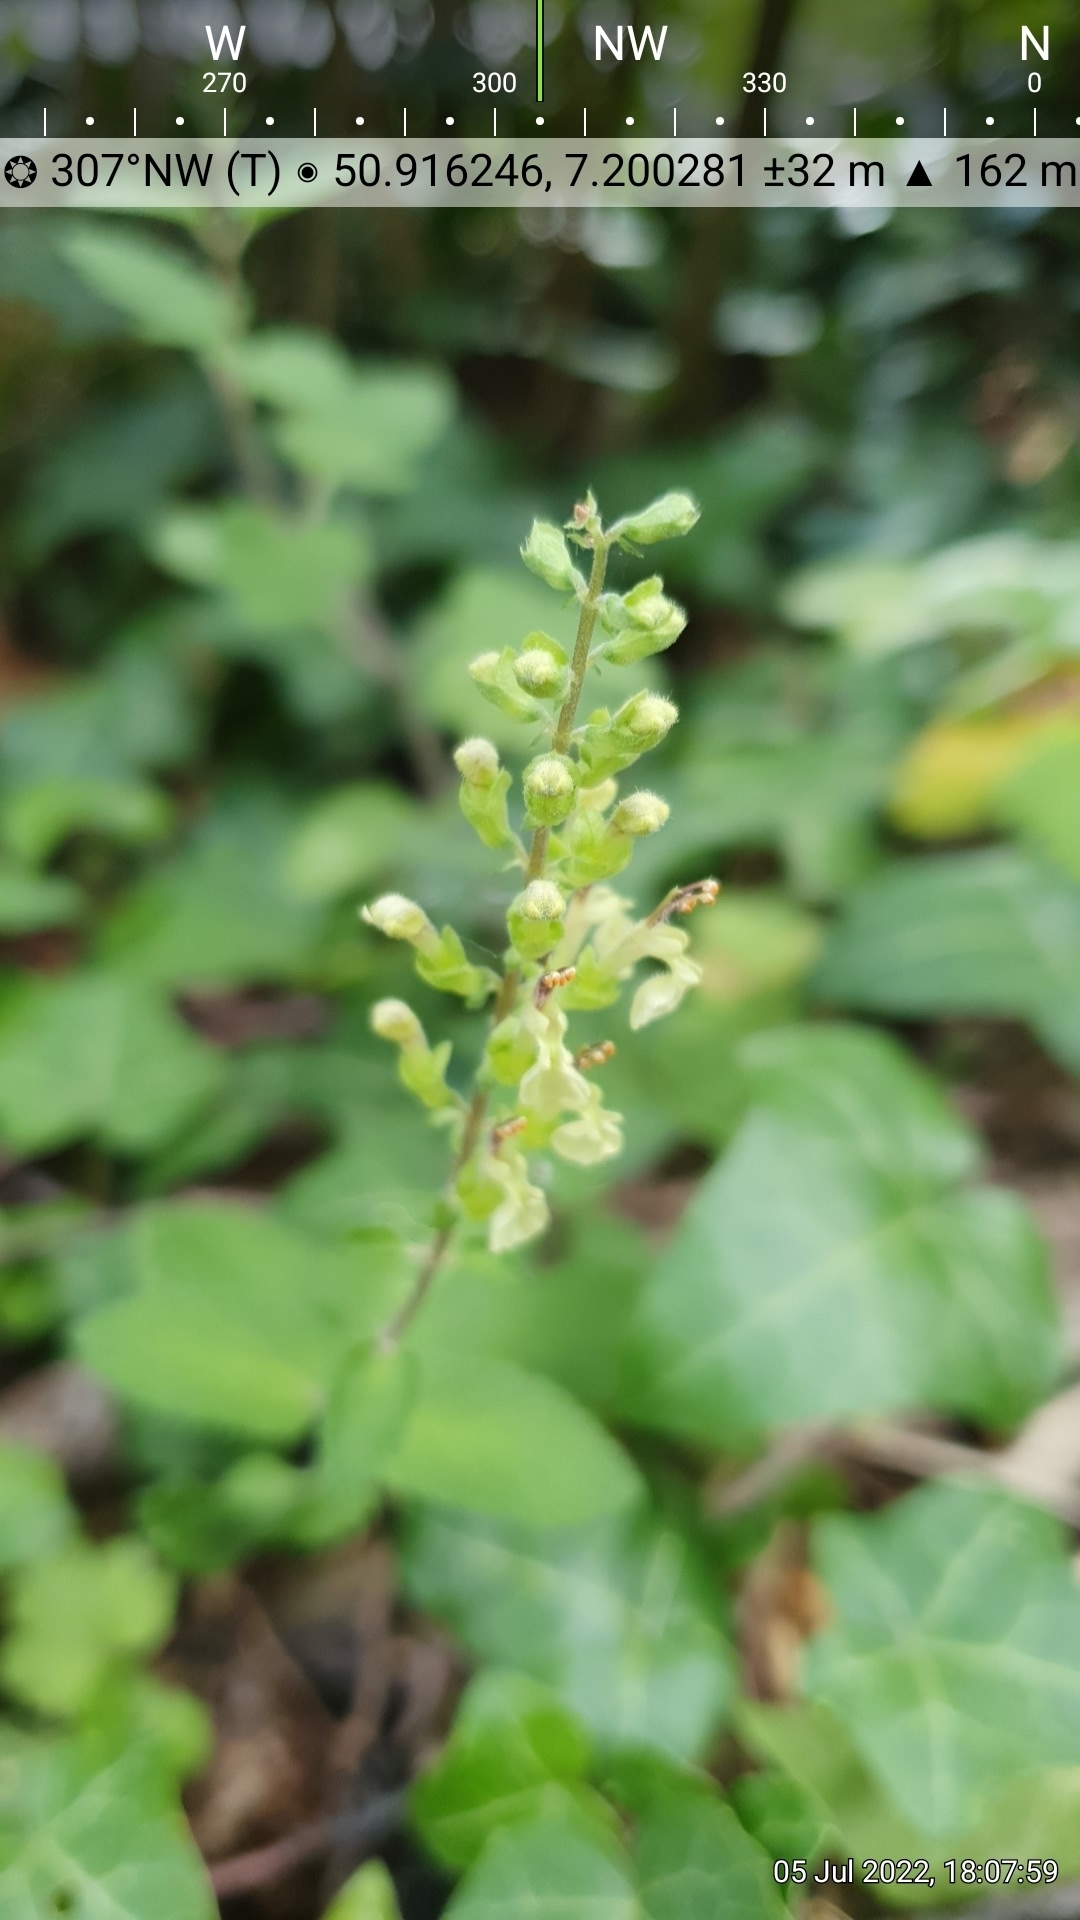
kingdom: Plantae
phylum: Tracheophyta
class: Magnoliopsida
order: Lamiales
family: Lamiaceae
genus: Teucrium
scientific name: Teucrium scorodonia
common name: Woodland germander
